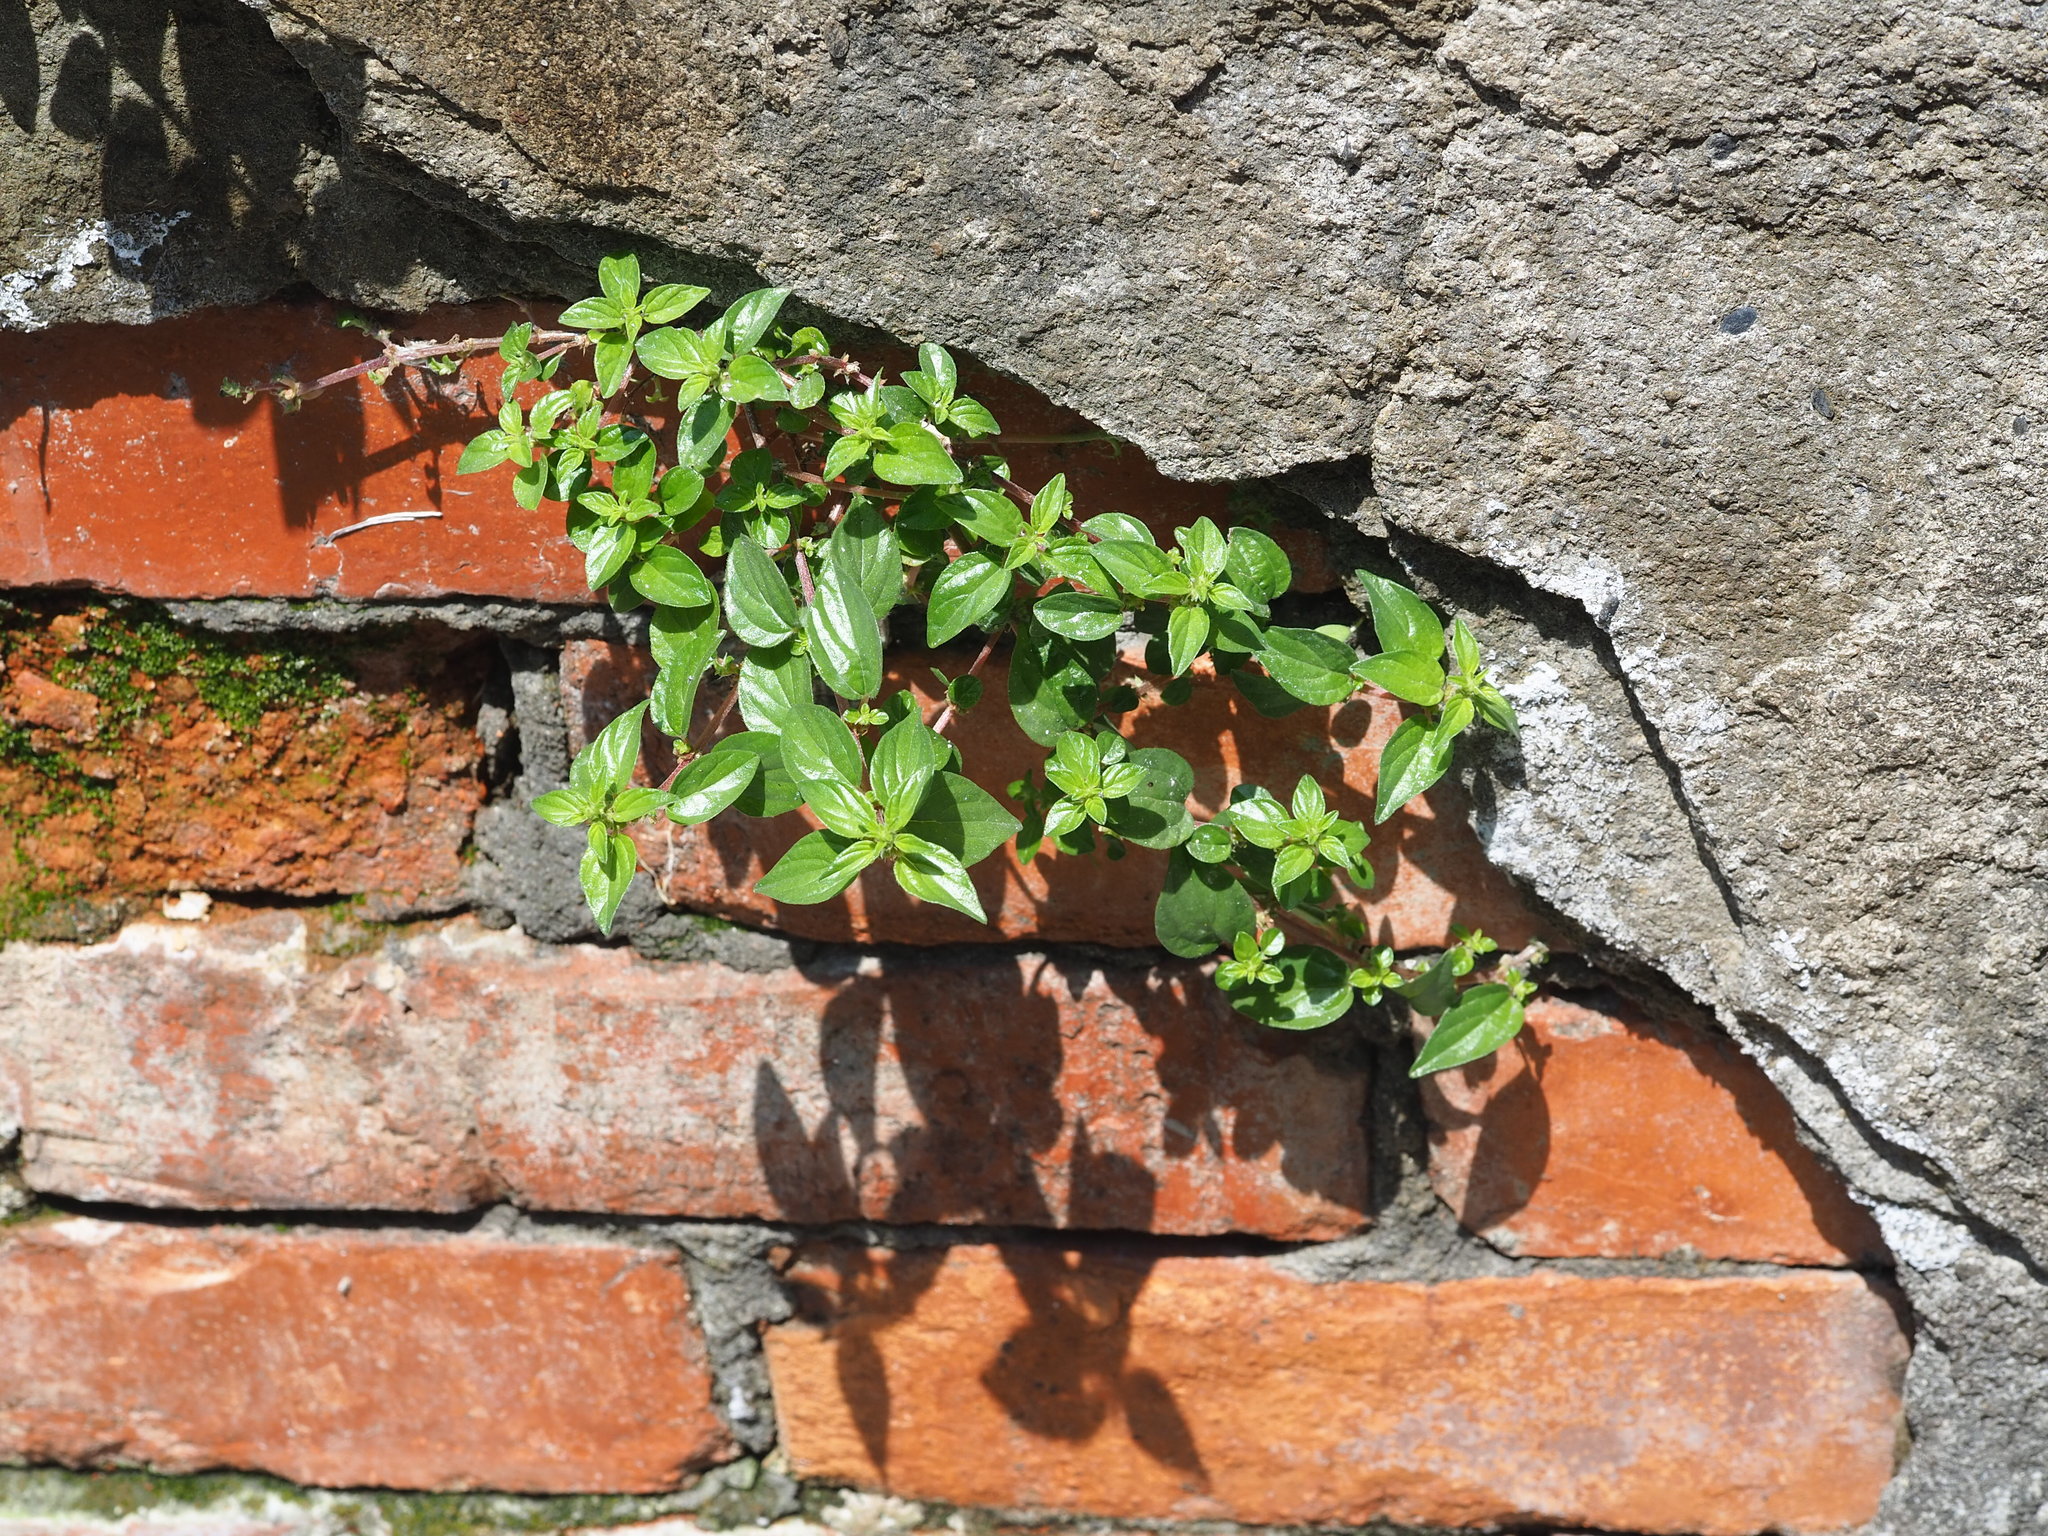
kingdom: Plantae
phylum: Tracheophyta
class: Magnoliopsida
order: Rosales
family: Urticaceae
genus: Pouzolzia
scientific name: Pouzolzia zeylanica
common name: Graceful pouzolzsbush
